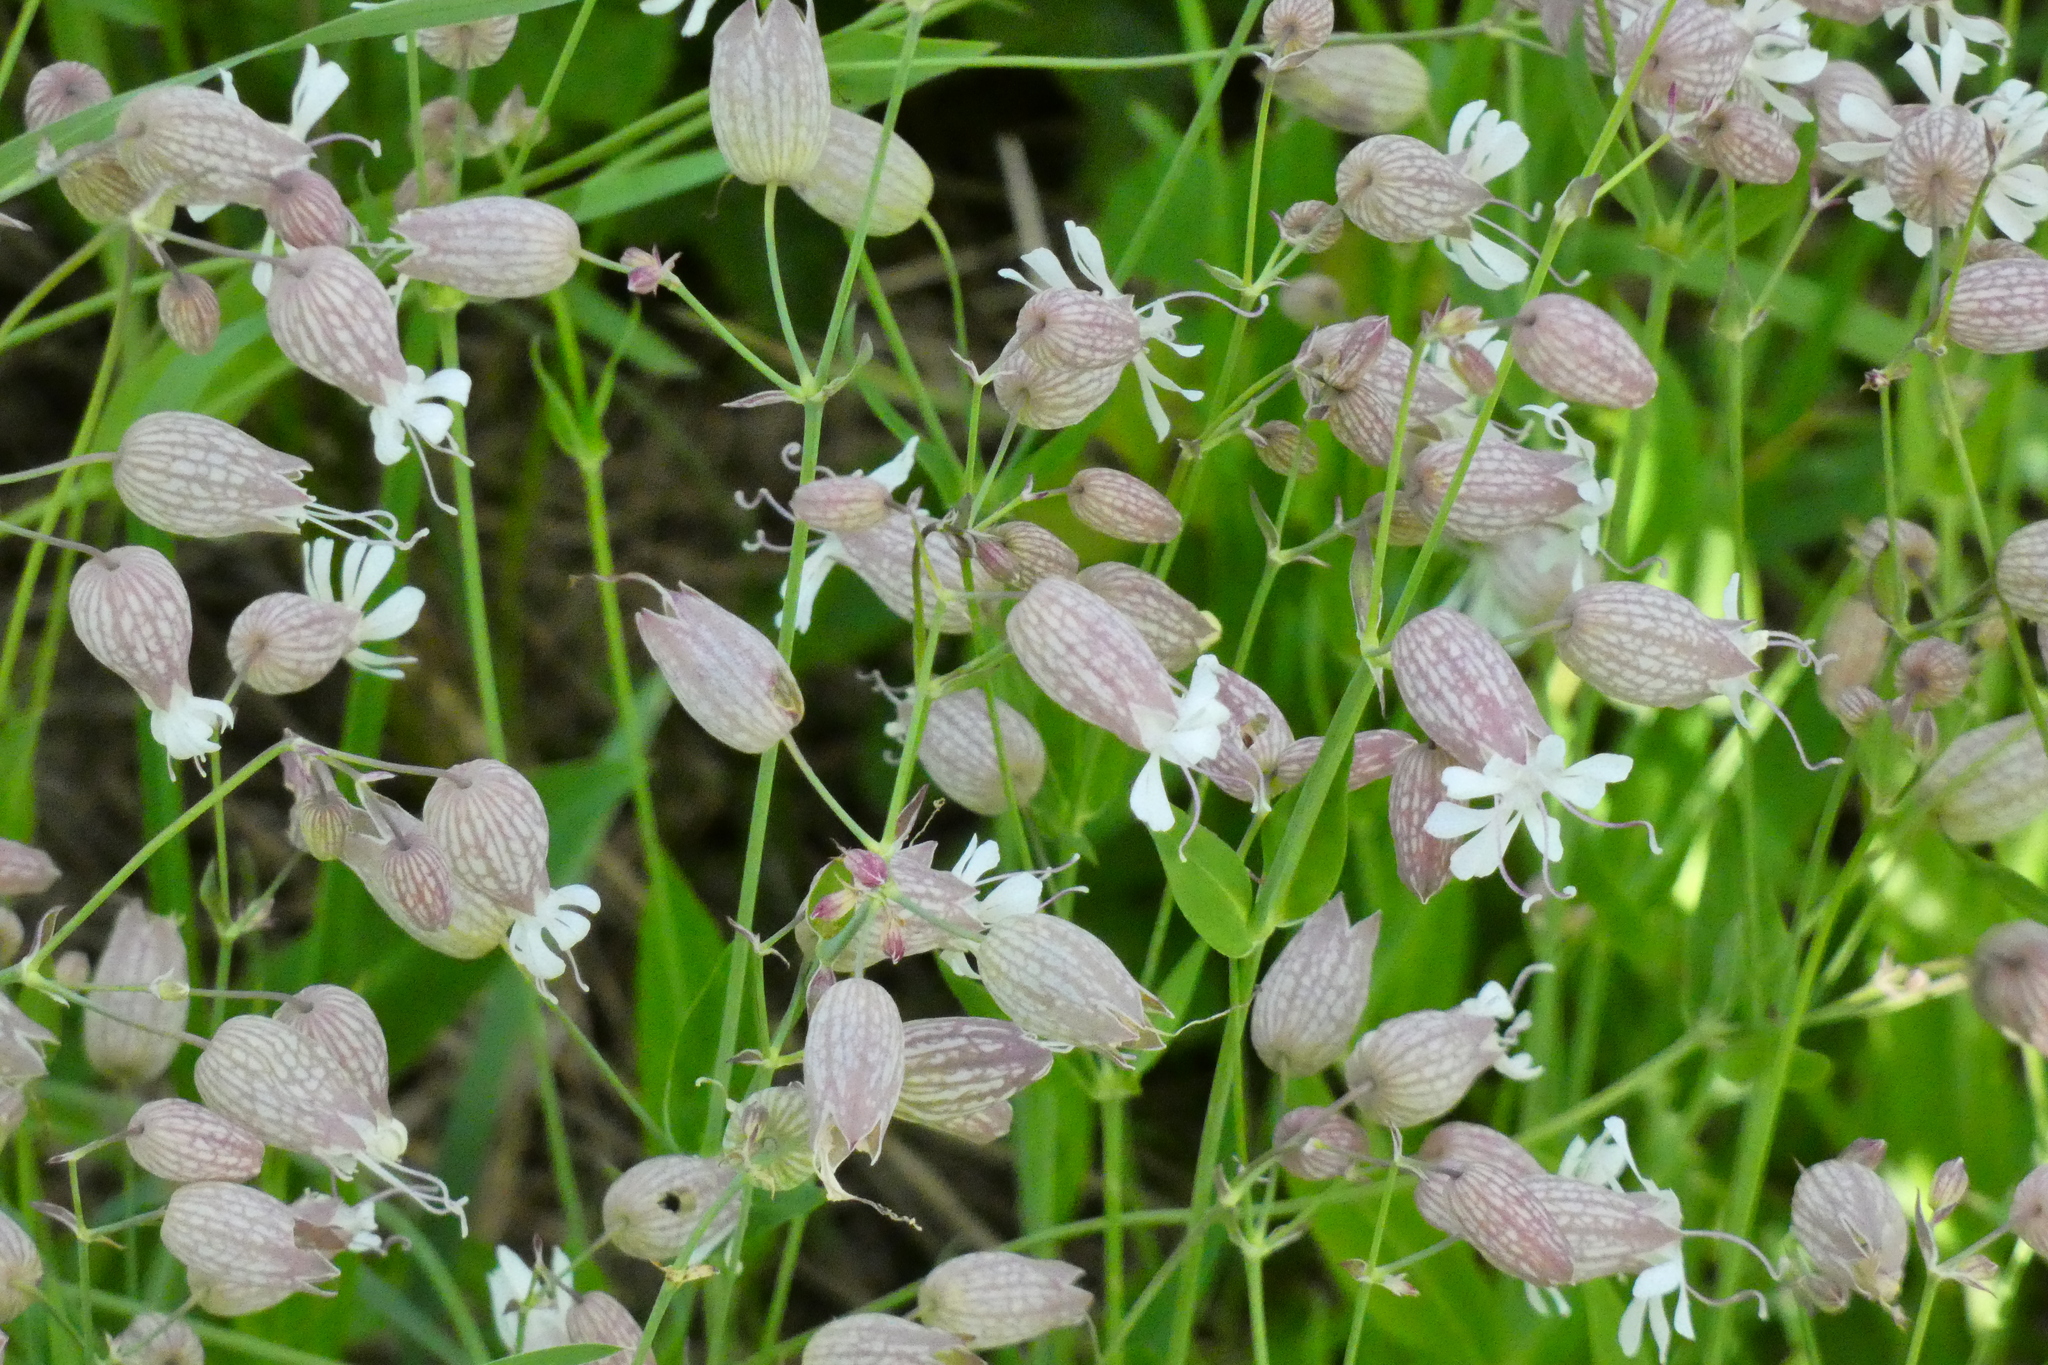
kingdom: Plantae
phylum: Tracheophyta
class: Magnoliopsida
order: Caryophyllales
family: Caryophyllaceae
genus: Silene
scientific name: Silene vulgaris
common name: Bladder campion
